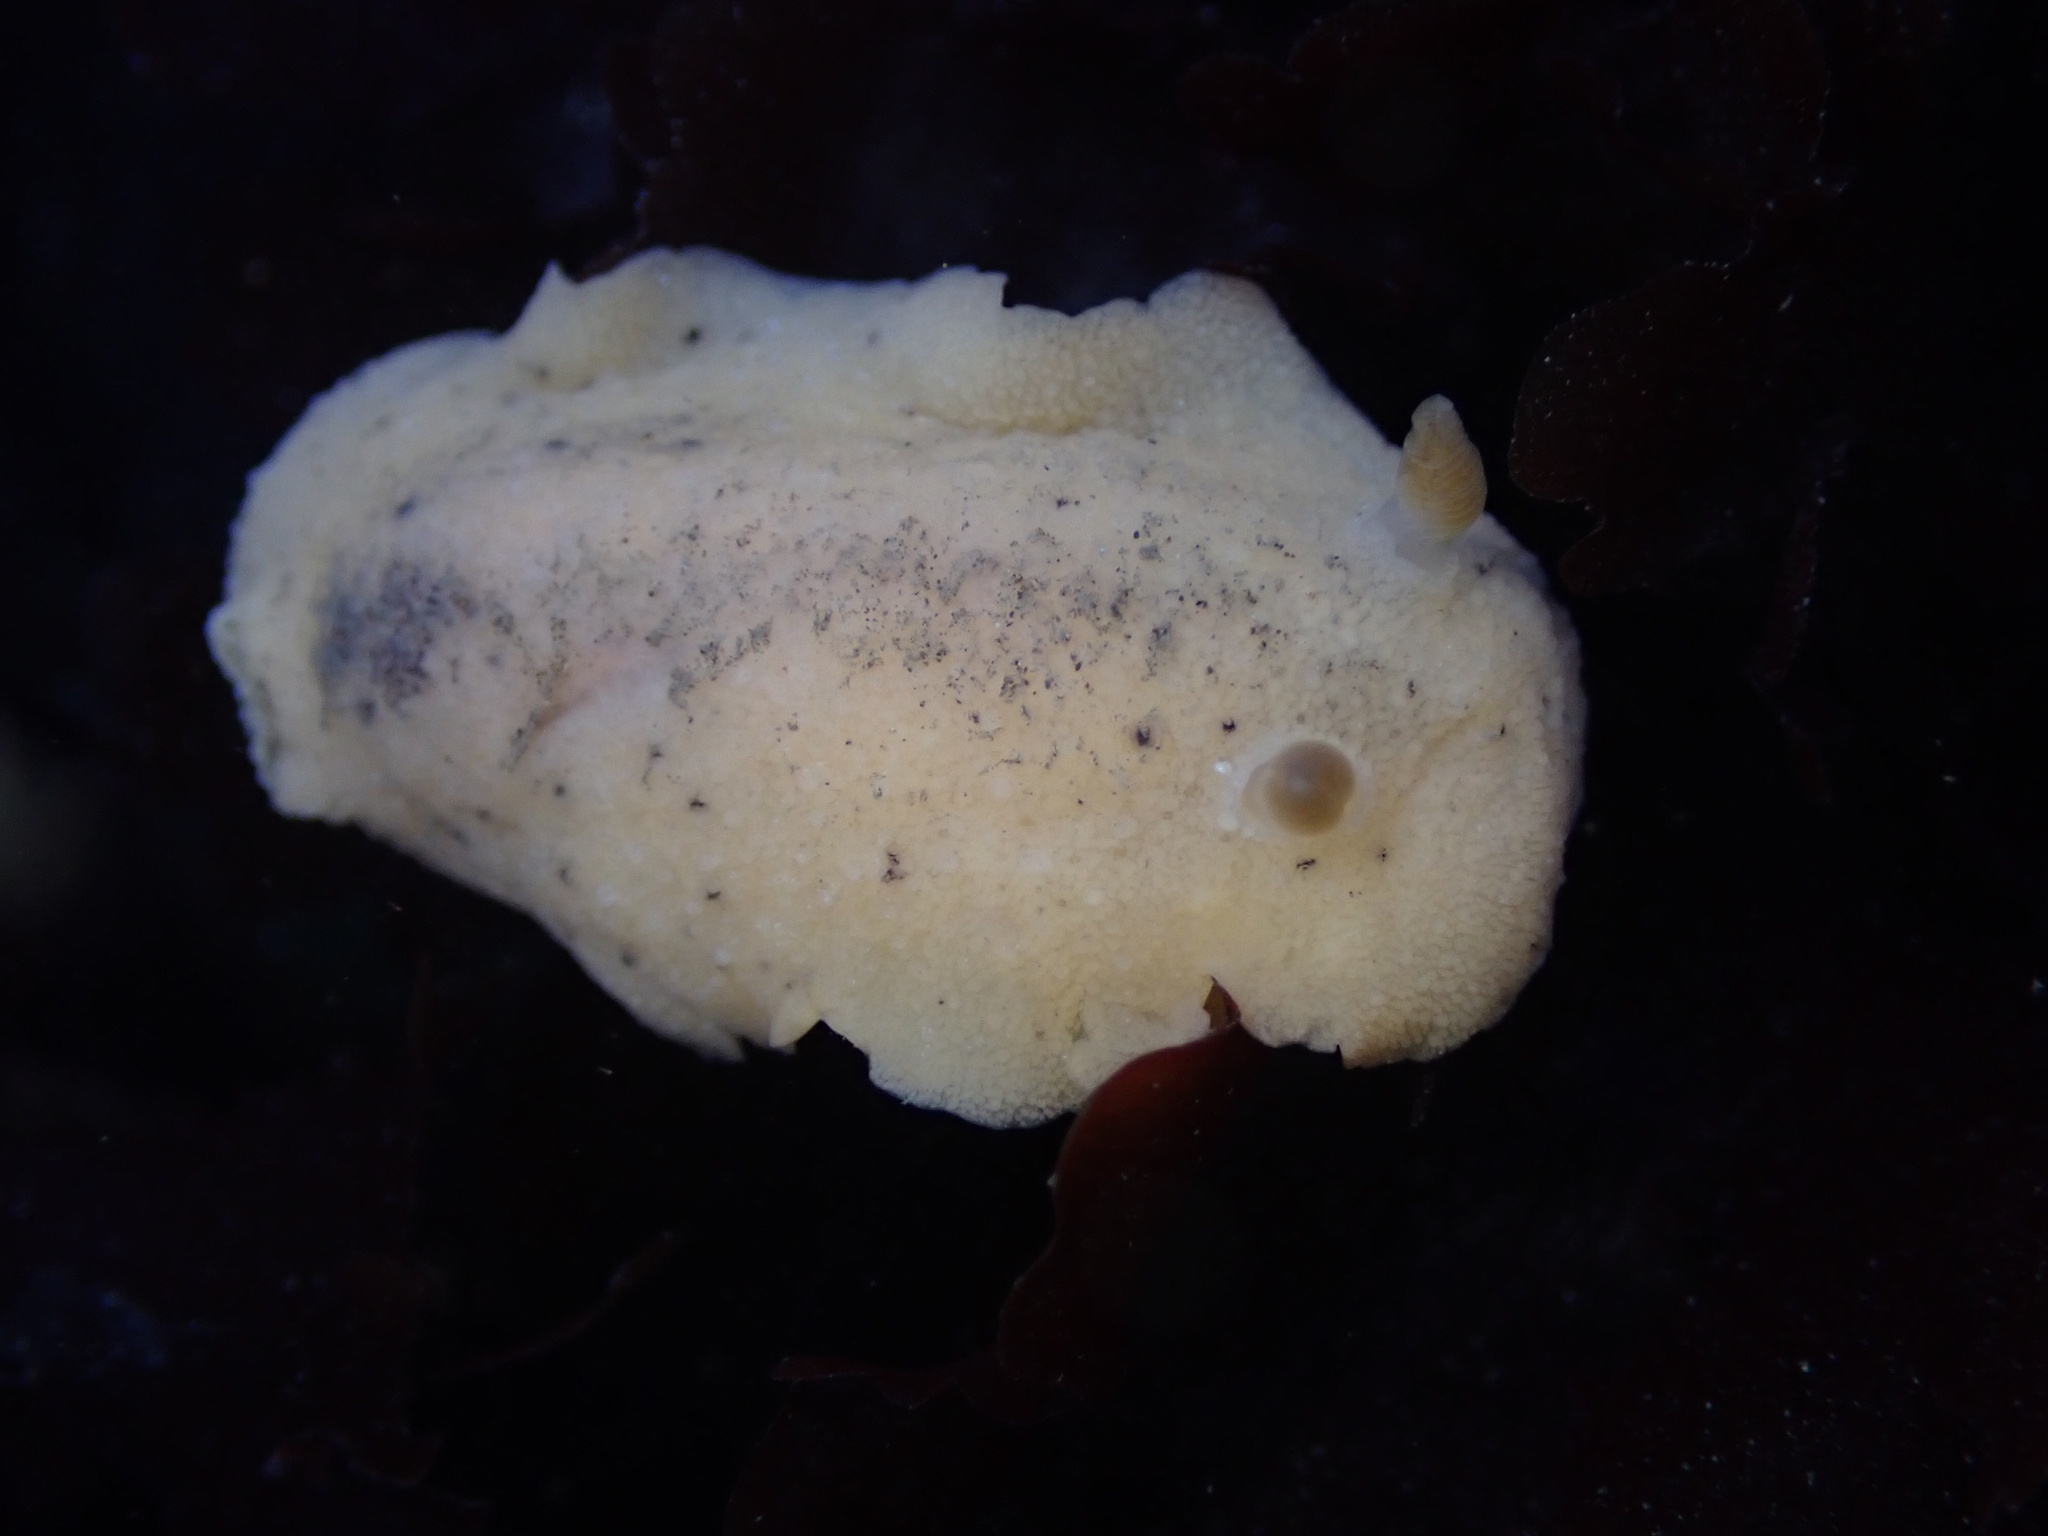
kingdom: Animalia
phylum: Mollusca
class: Gastropoda
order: Nudibranchia
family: Discodorididae
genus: Geitodoris
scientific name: Geitodoris heathi
